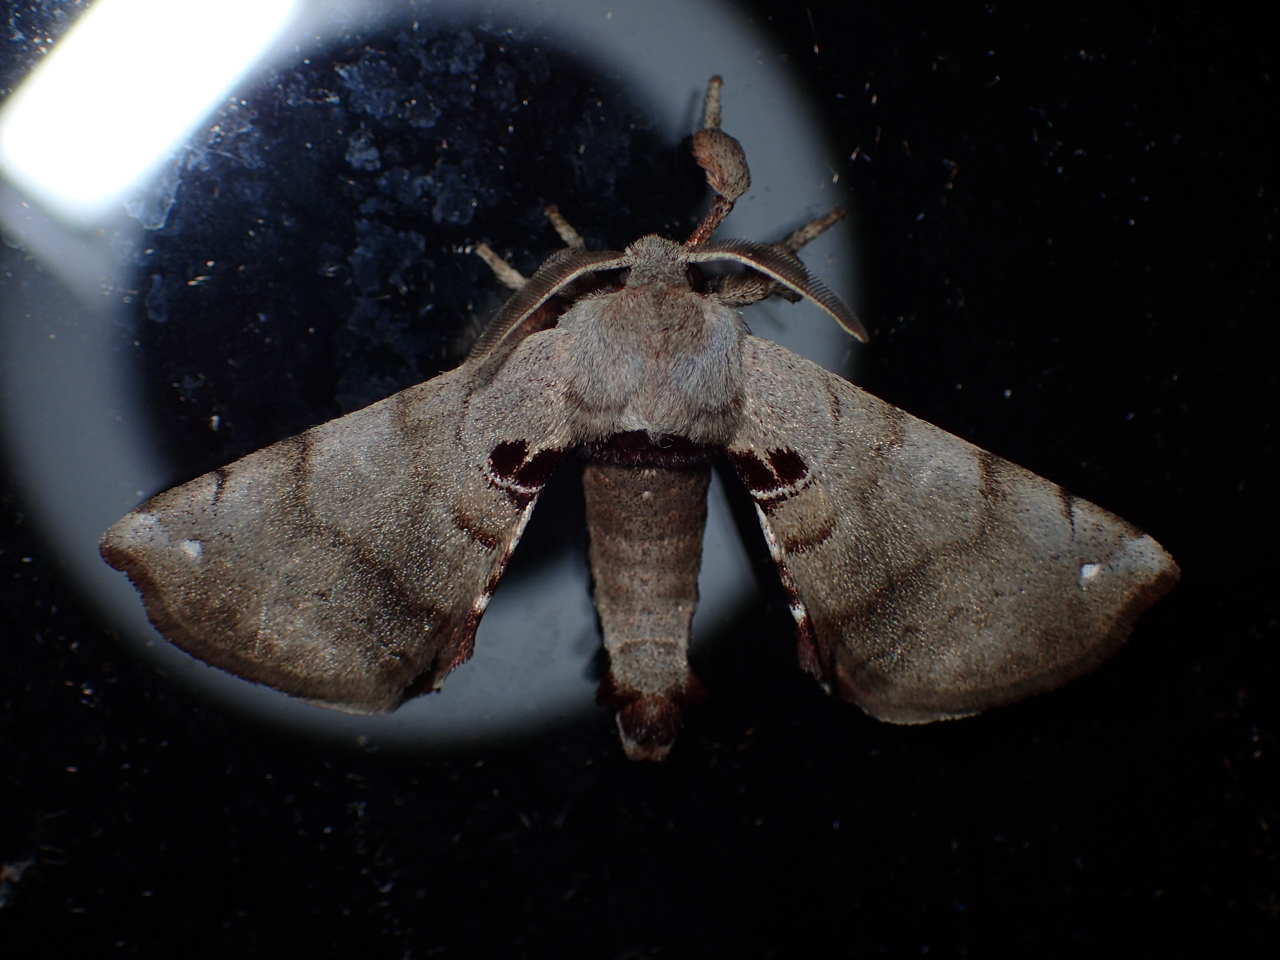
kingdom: Animalia
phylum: Arthropoda
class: Insecta
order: Lepidoptera
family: Apatelodidae
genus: Hygrochroa
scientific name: Hygrochroa Apatelodes torrefacta
